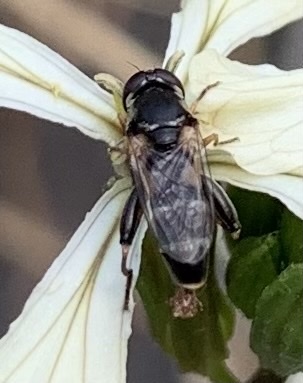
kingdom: Animalia
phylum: Arthropoda
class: Insecta
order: Diptera
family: Syrphidae
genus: Syritta
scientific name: Syritta pipiens
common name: Hover fly
